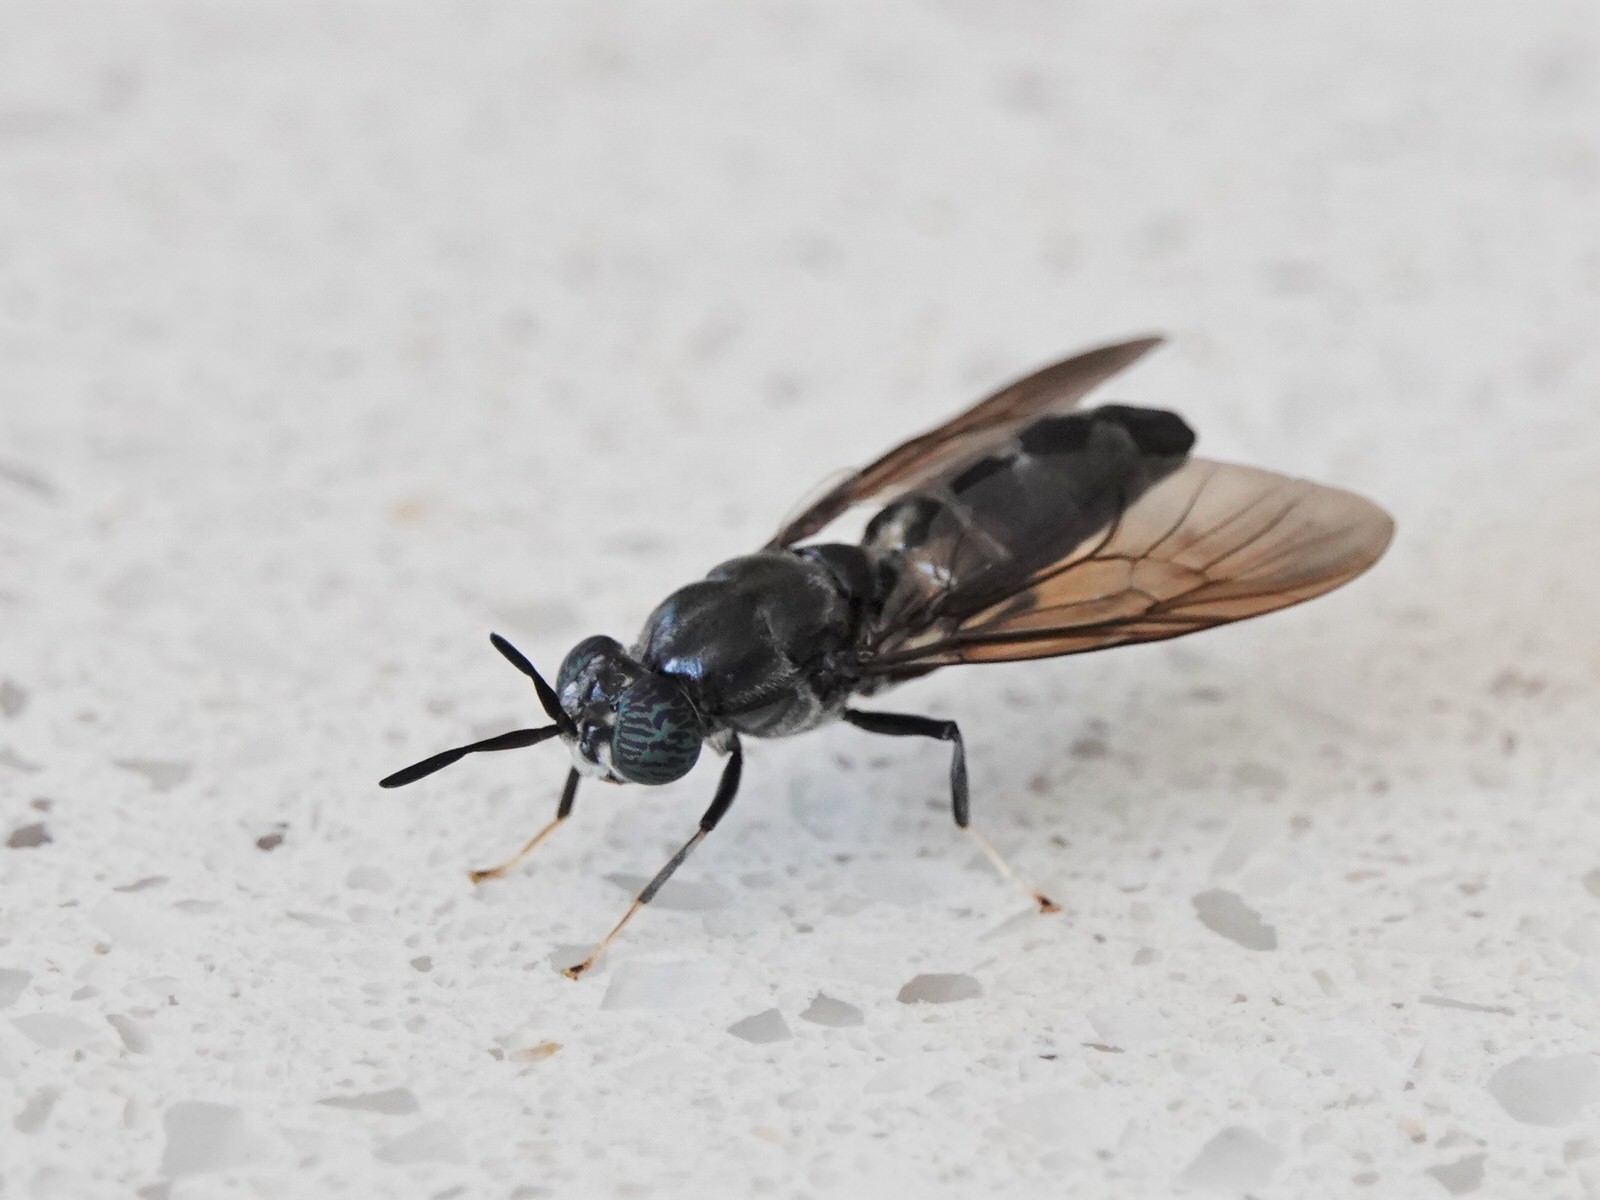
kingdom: Animalia
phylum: Arthropoda
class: Insecta
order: Diptera
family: Stratiomyidae
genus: Hermetia
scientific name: Hermetia illucens
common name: Black soldier fly
